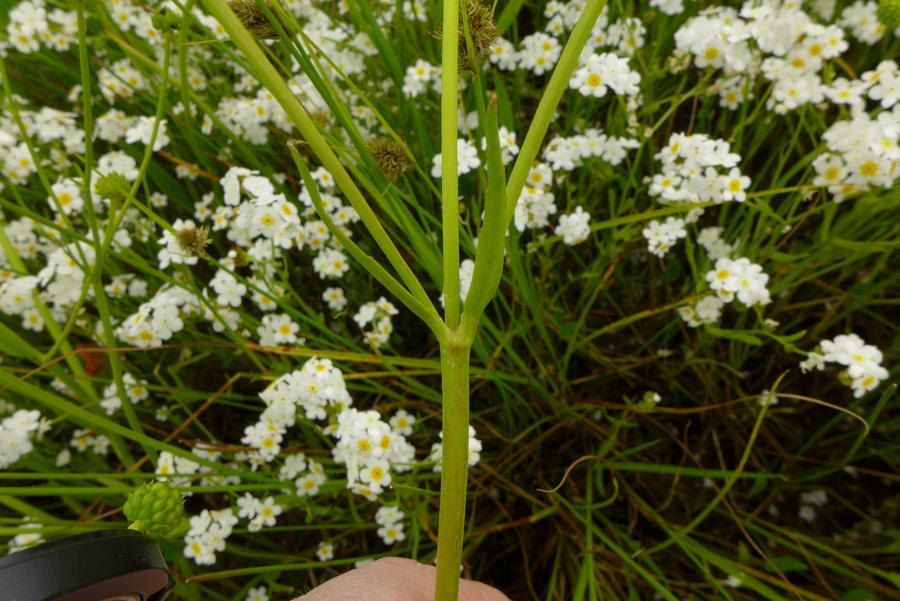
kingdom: Plantae
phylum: Tracheophyta
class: Magnoliopsida
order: Ranunculales
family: Ranunculaceae
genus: Ranunculus
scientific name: Ranunculus alismifolius
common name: Plantain-leaved buttercup
